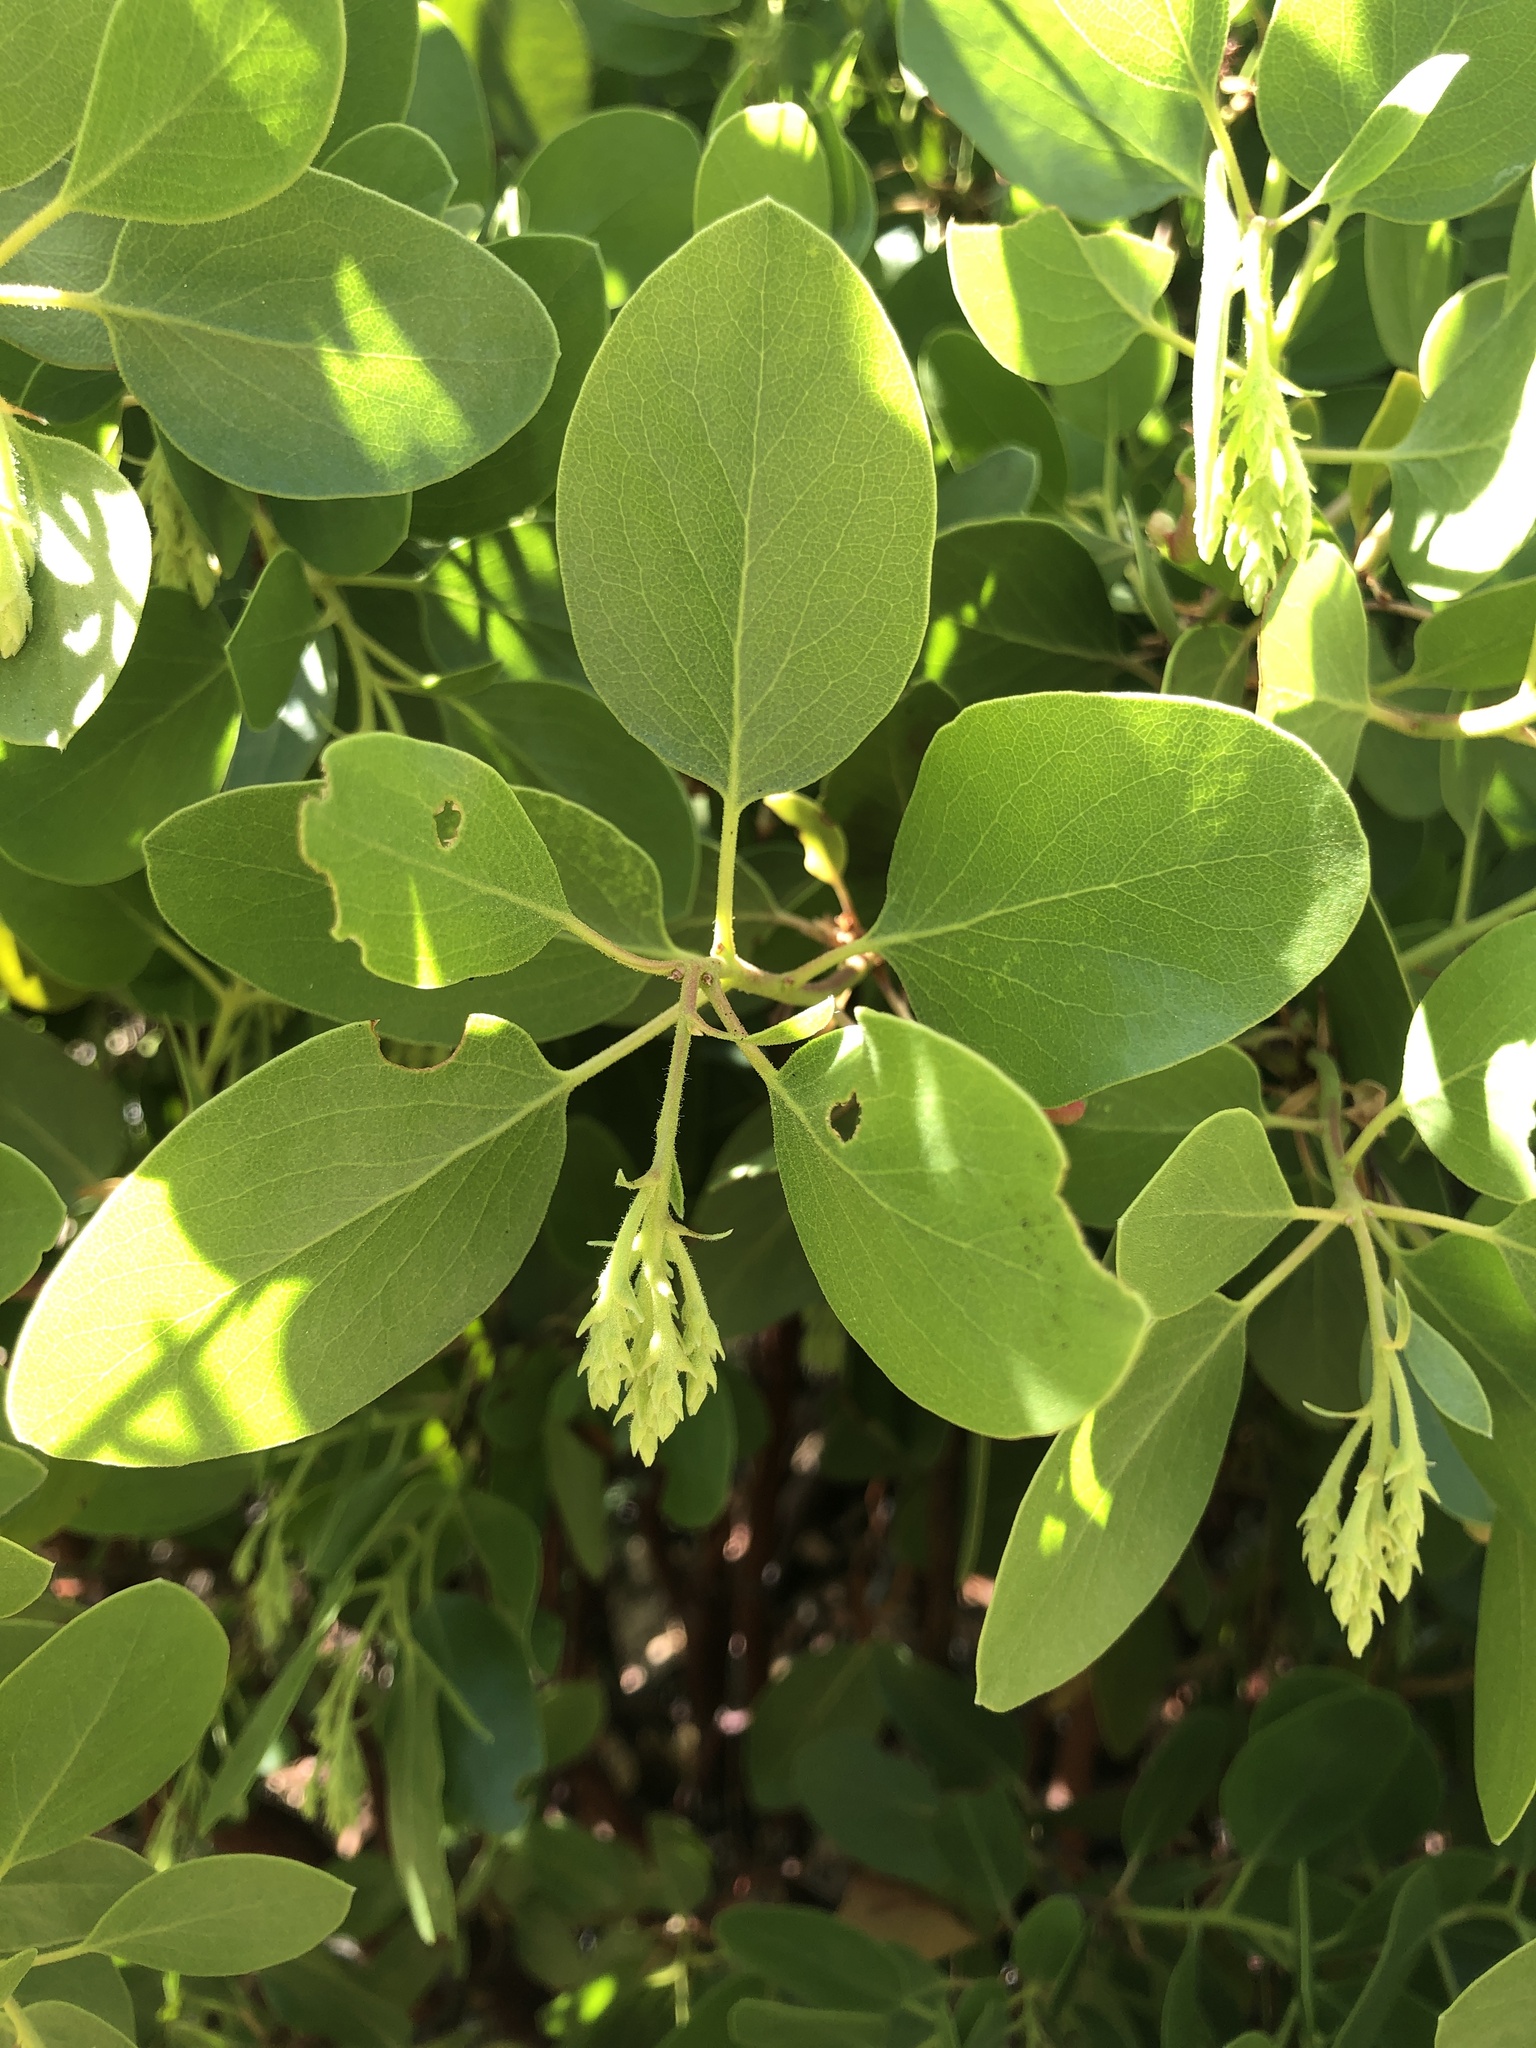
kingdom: Plantae
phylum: Tracheophyta
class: Magnoliopsida
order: Ericales
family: Ericaceae
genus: Arctostaphylos
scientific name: Arctostaphylos patula
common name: Green-leaf manzanita
